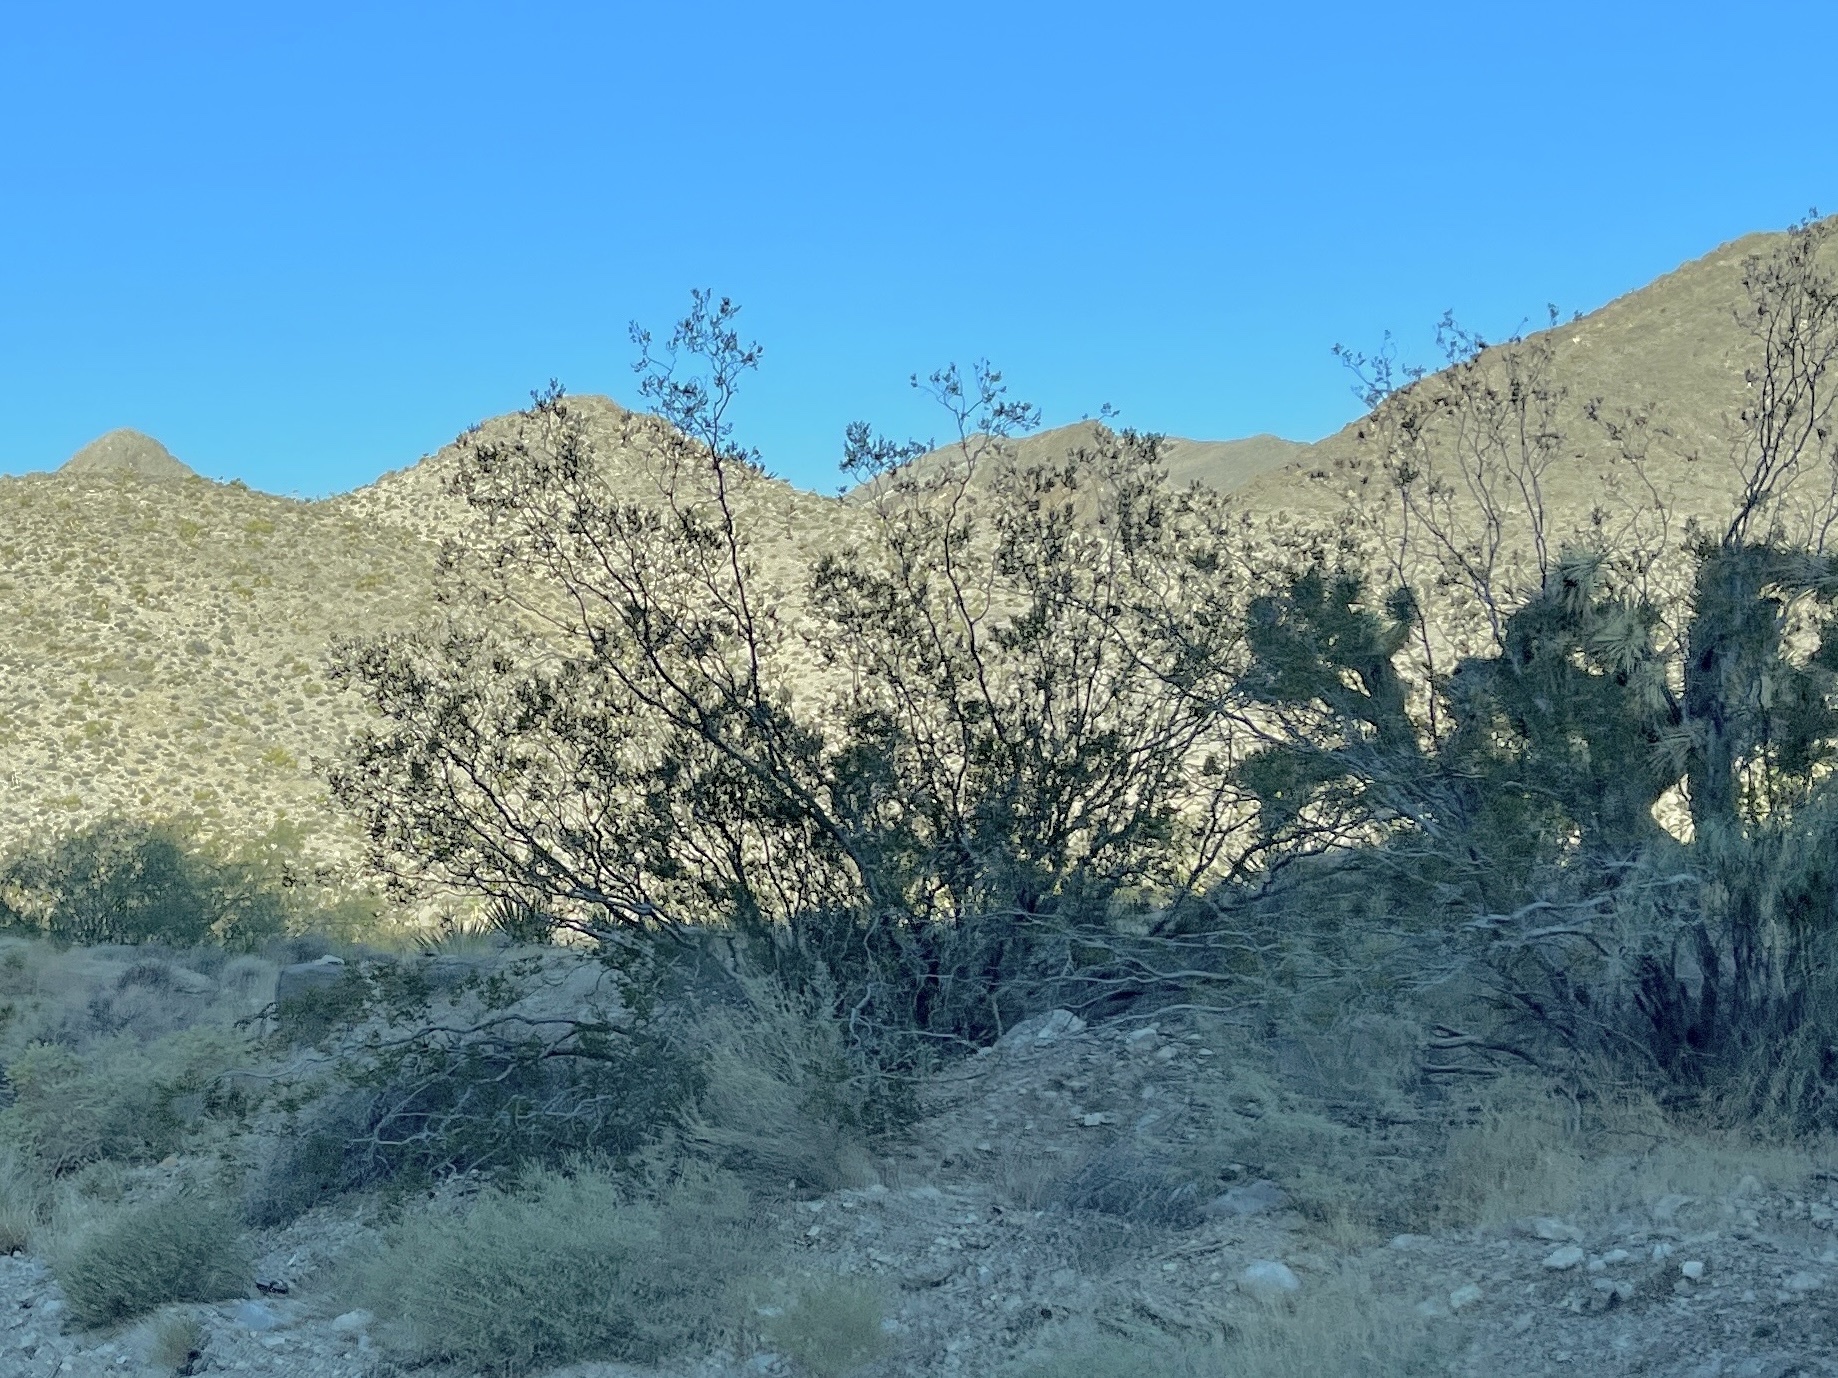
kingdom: Plantae
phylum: Tracheophyta
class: Magnoliopsida
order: Zygophyllales
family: Zygophyllaceae
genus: Larrea
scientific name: Larrea tridentata
